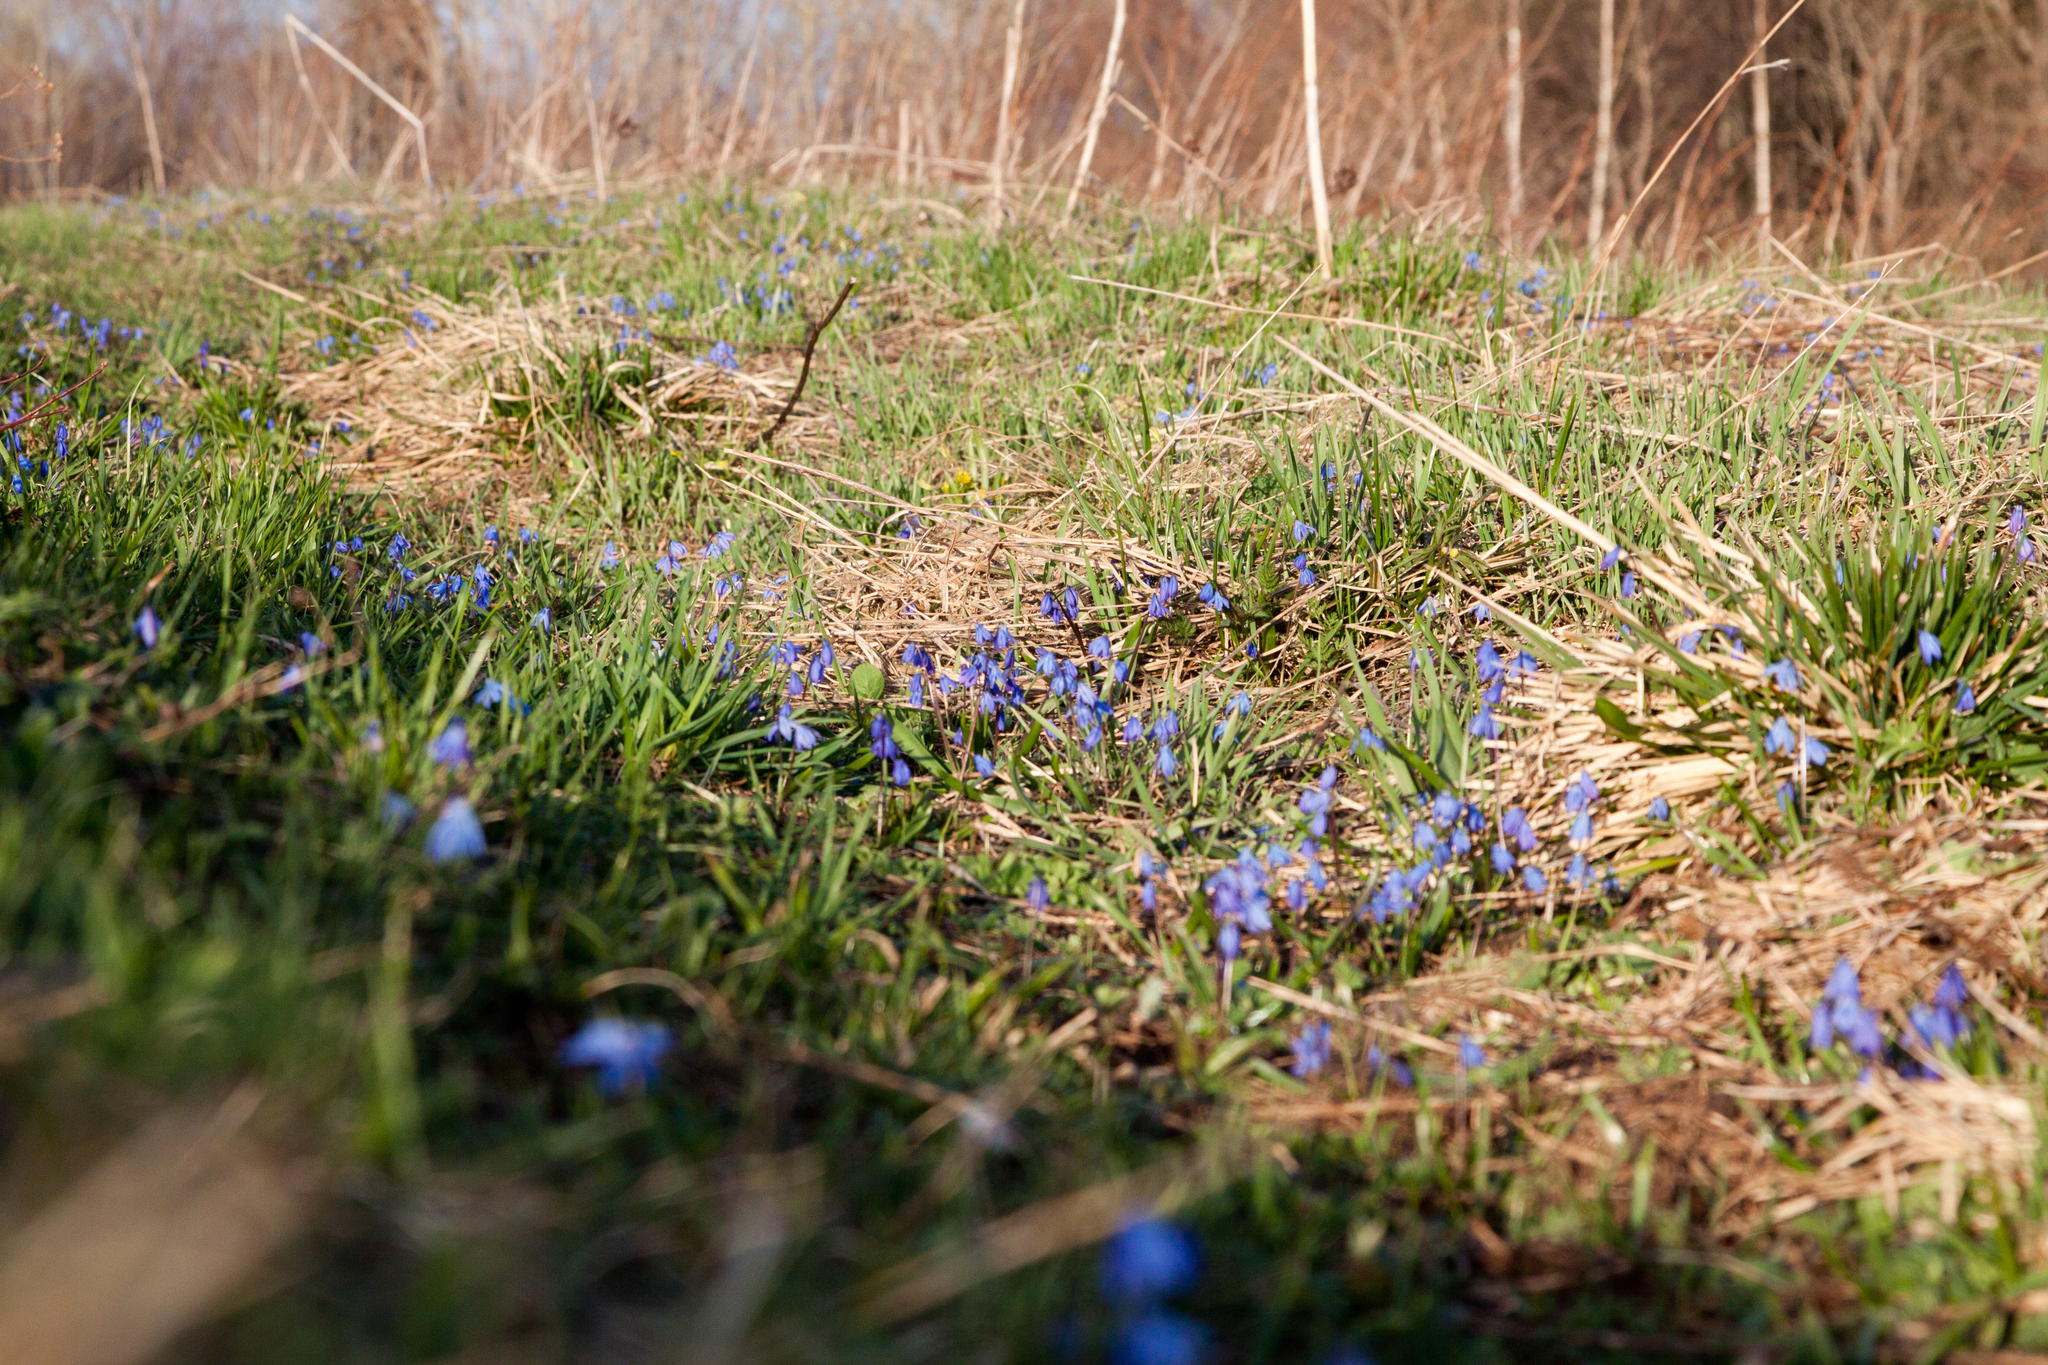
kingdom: Plantae
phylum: Tracheophyta
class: Liliopsida
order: Asparagales
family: Asparagaceae
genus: Scilla
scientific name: Scilla siberica
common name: Siberian squill
